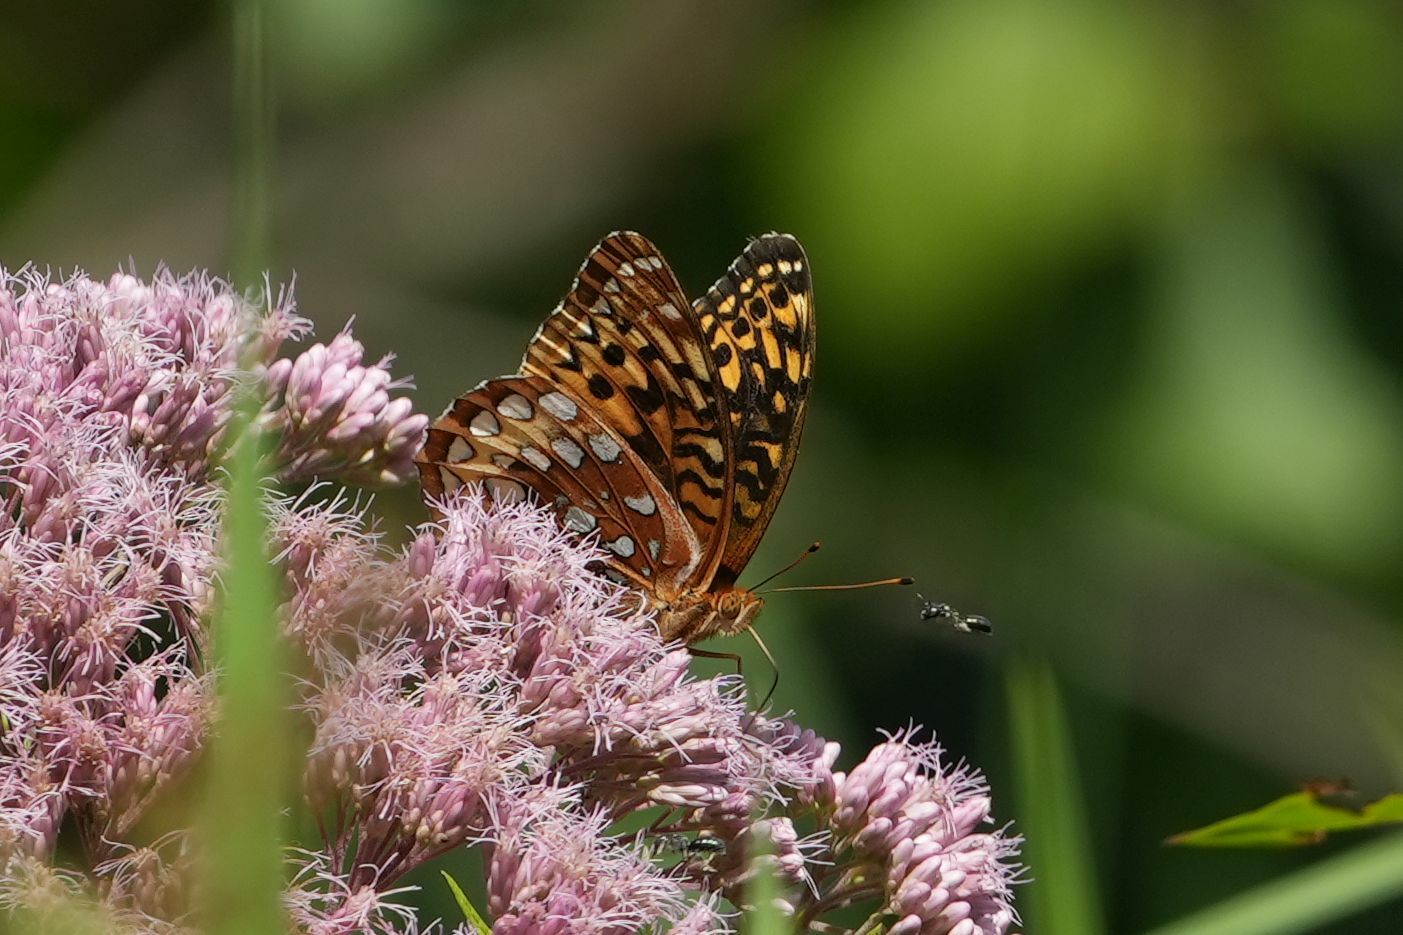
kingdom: Animalia
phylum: Arthropoda
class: Insecta
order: Lepidoptera
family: Nymphalidae
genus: Speyeria
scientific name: Speyeria cybele
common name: Great spangled fritillary
